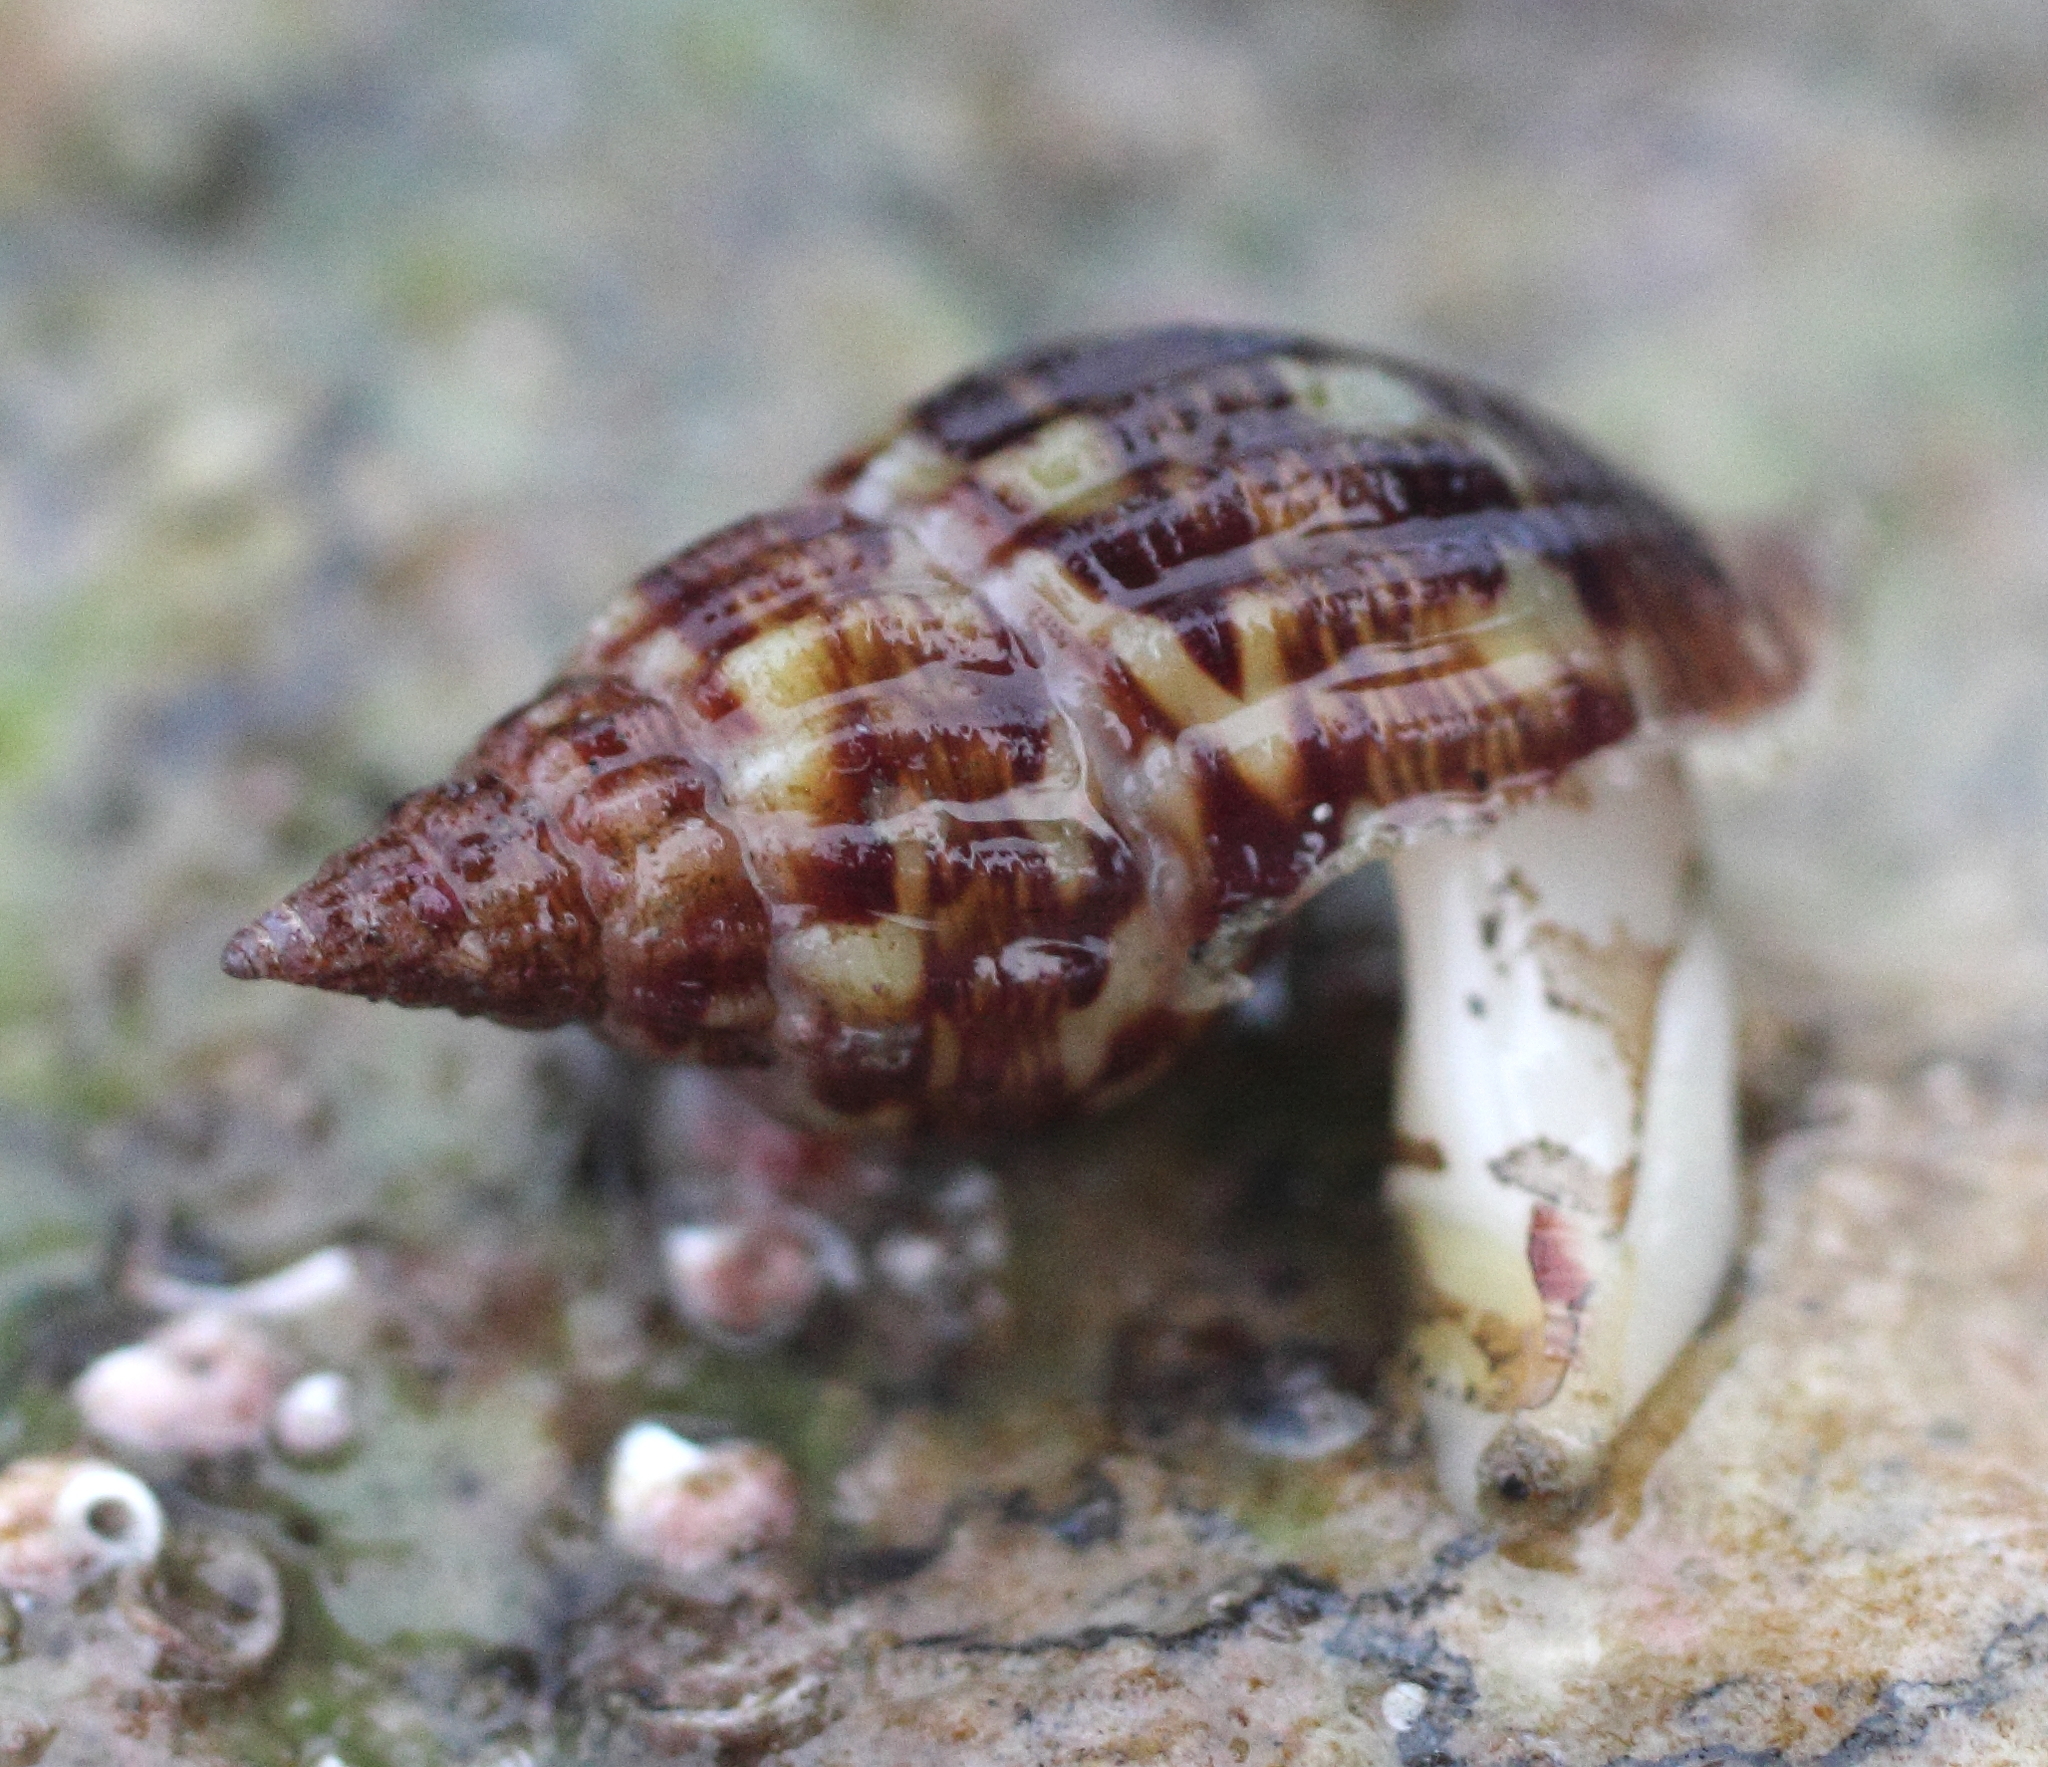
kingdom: Animalia
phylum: Mollusca
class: Gastropoda
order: Neogastropoda
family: Columbellidae
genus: Amphissa
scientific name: Amphissa columbiana
